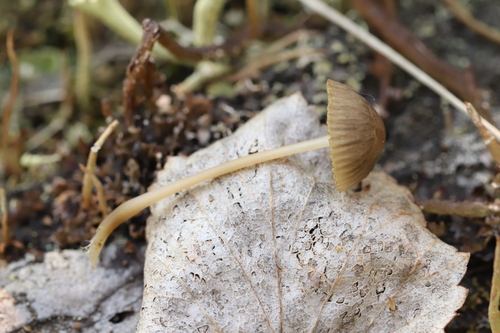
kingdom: Fungi
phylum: Basidiomycota
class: Agaricomycetes
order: Agaricales
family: Mycenaceae
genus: Mycena
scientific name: Mycena viridimarginata
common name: Olive edge bonnet
